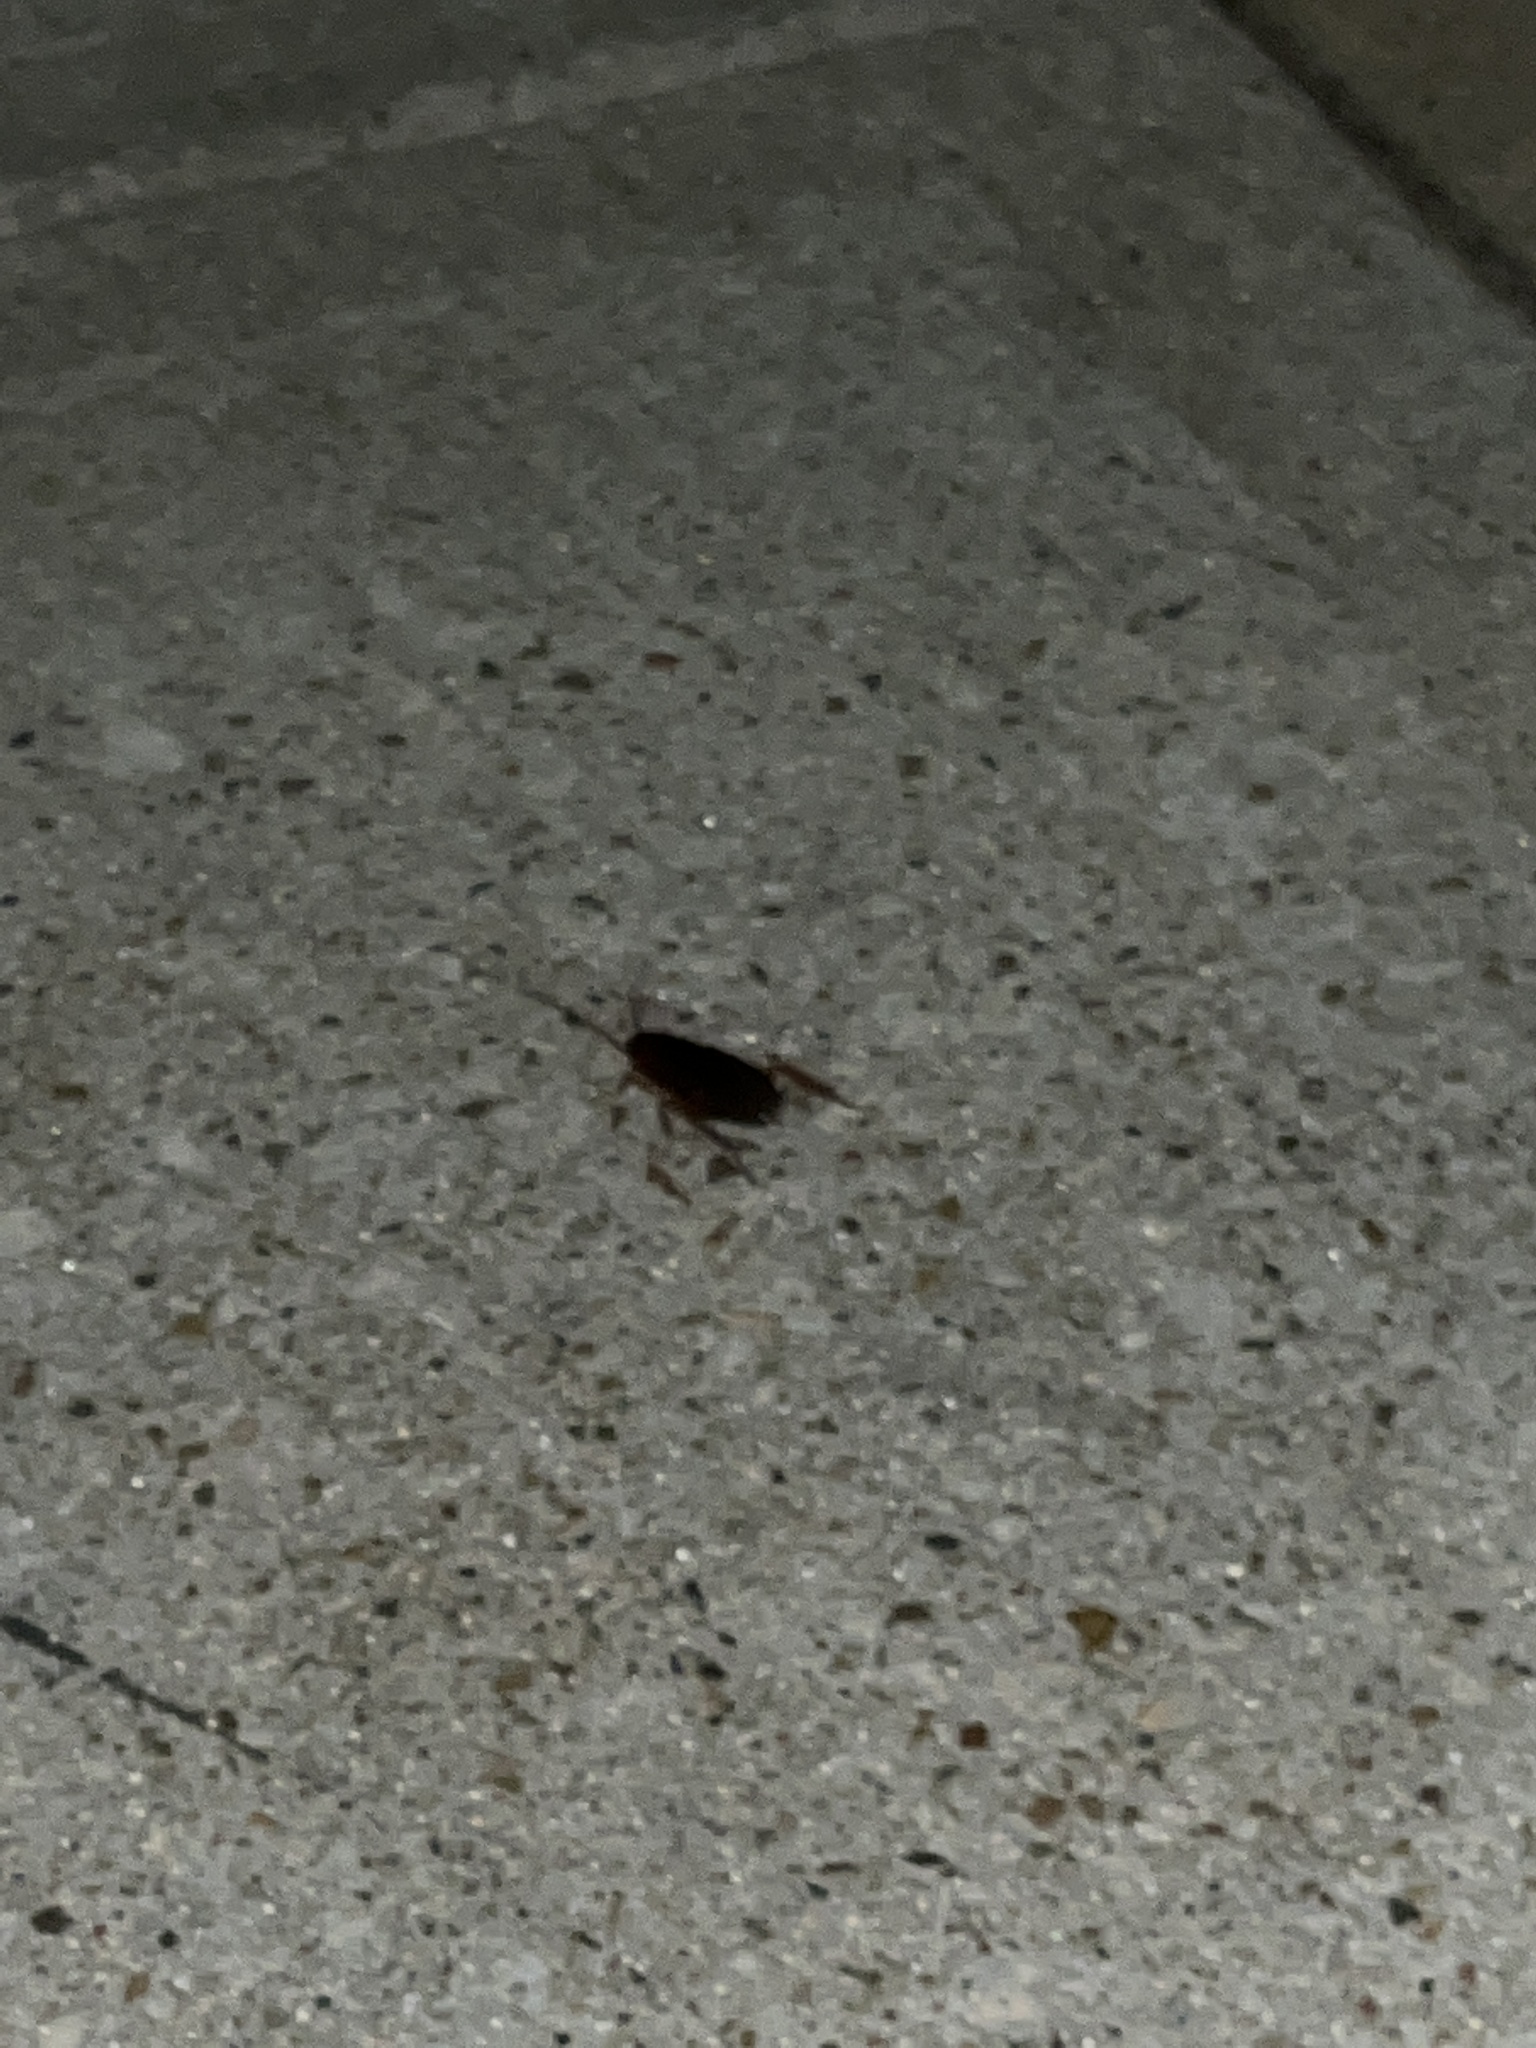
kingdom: Animalia
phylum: Arthropoda
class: Insecta
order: Blattodea
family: Blattidae
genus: Periplaneta
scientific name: Periplaneta americana
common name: American cockroach
